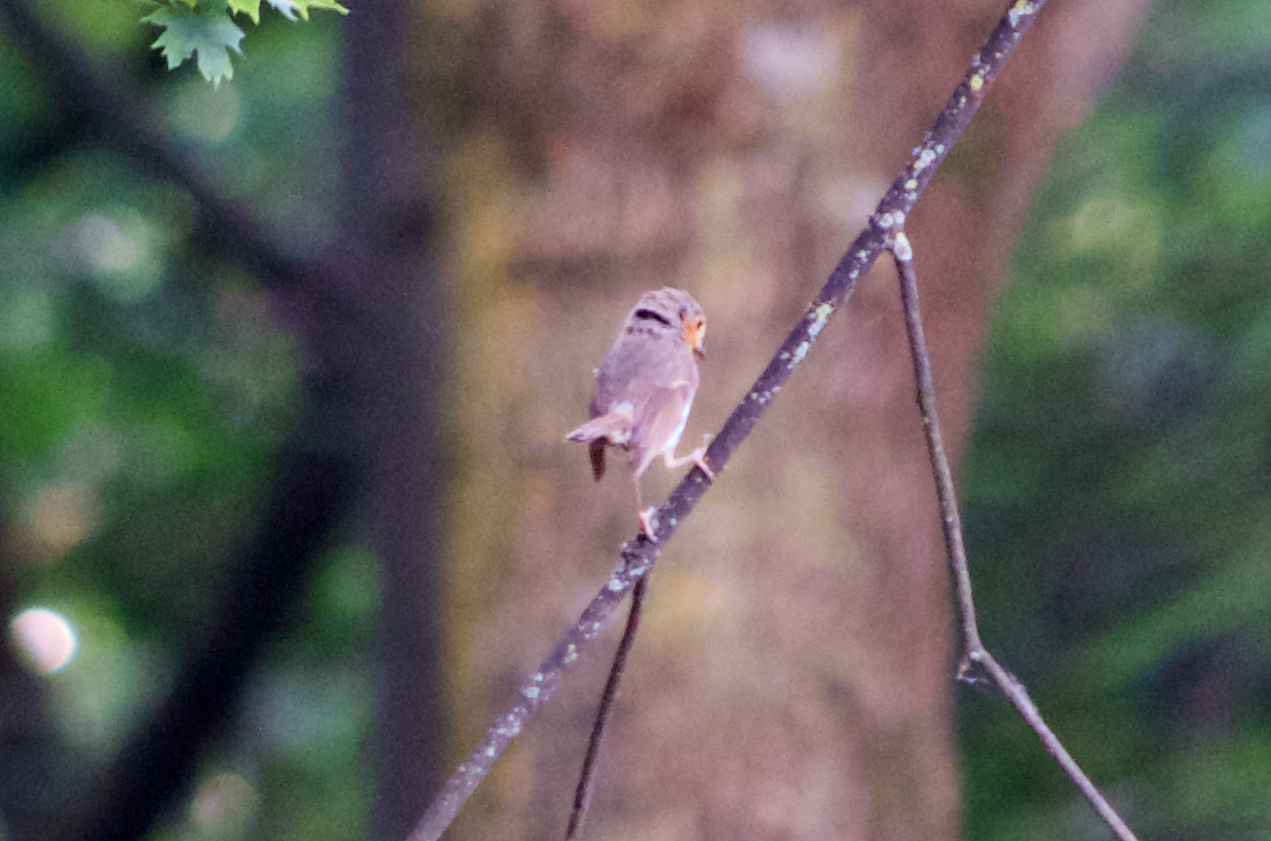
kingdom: Animalia
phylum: Chordata
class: Aves
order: Passeriformes
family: Muscicapidae
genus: Erithacus
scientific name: Erithacus rubecula
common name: European robin
